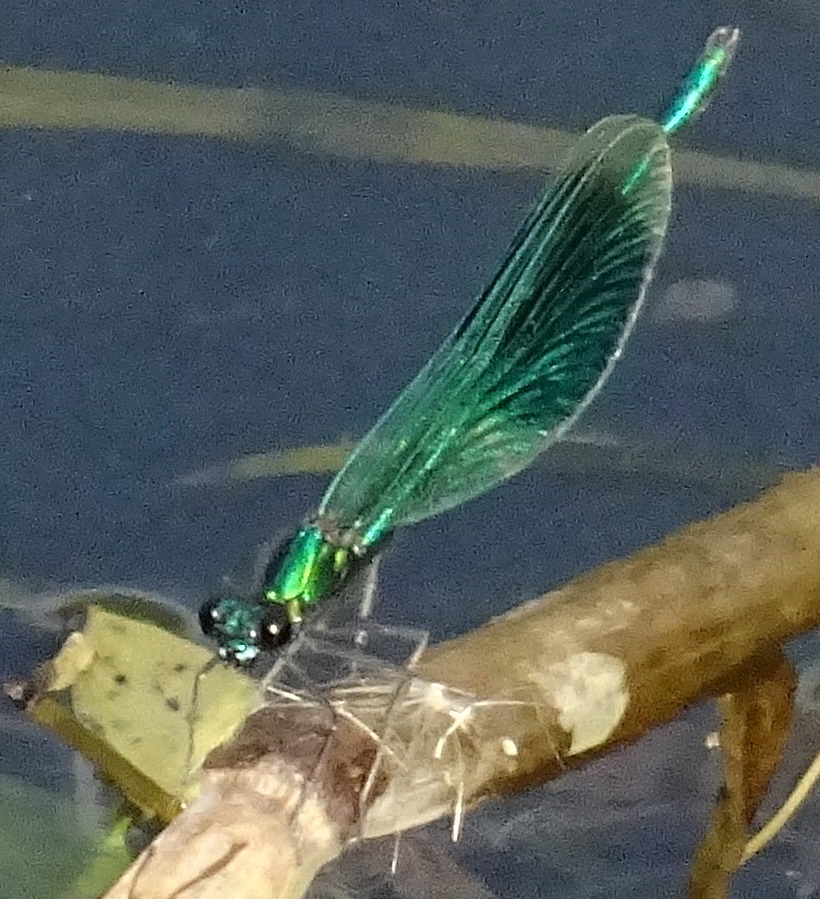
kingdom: Animalia
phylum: Arthropoda
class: Insecta
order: Odonata
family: Calopterygidae
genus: Calopteryx
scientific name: Calopteryx splendens
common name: Banded demoiselle
